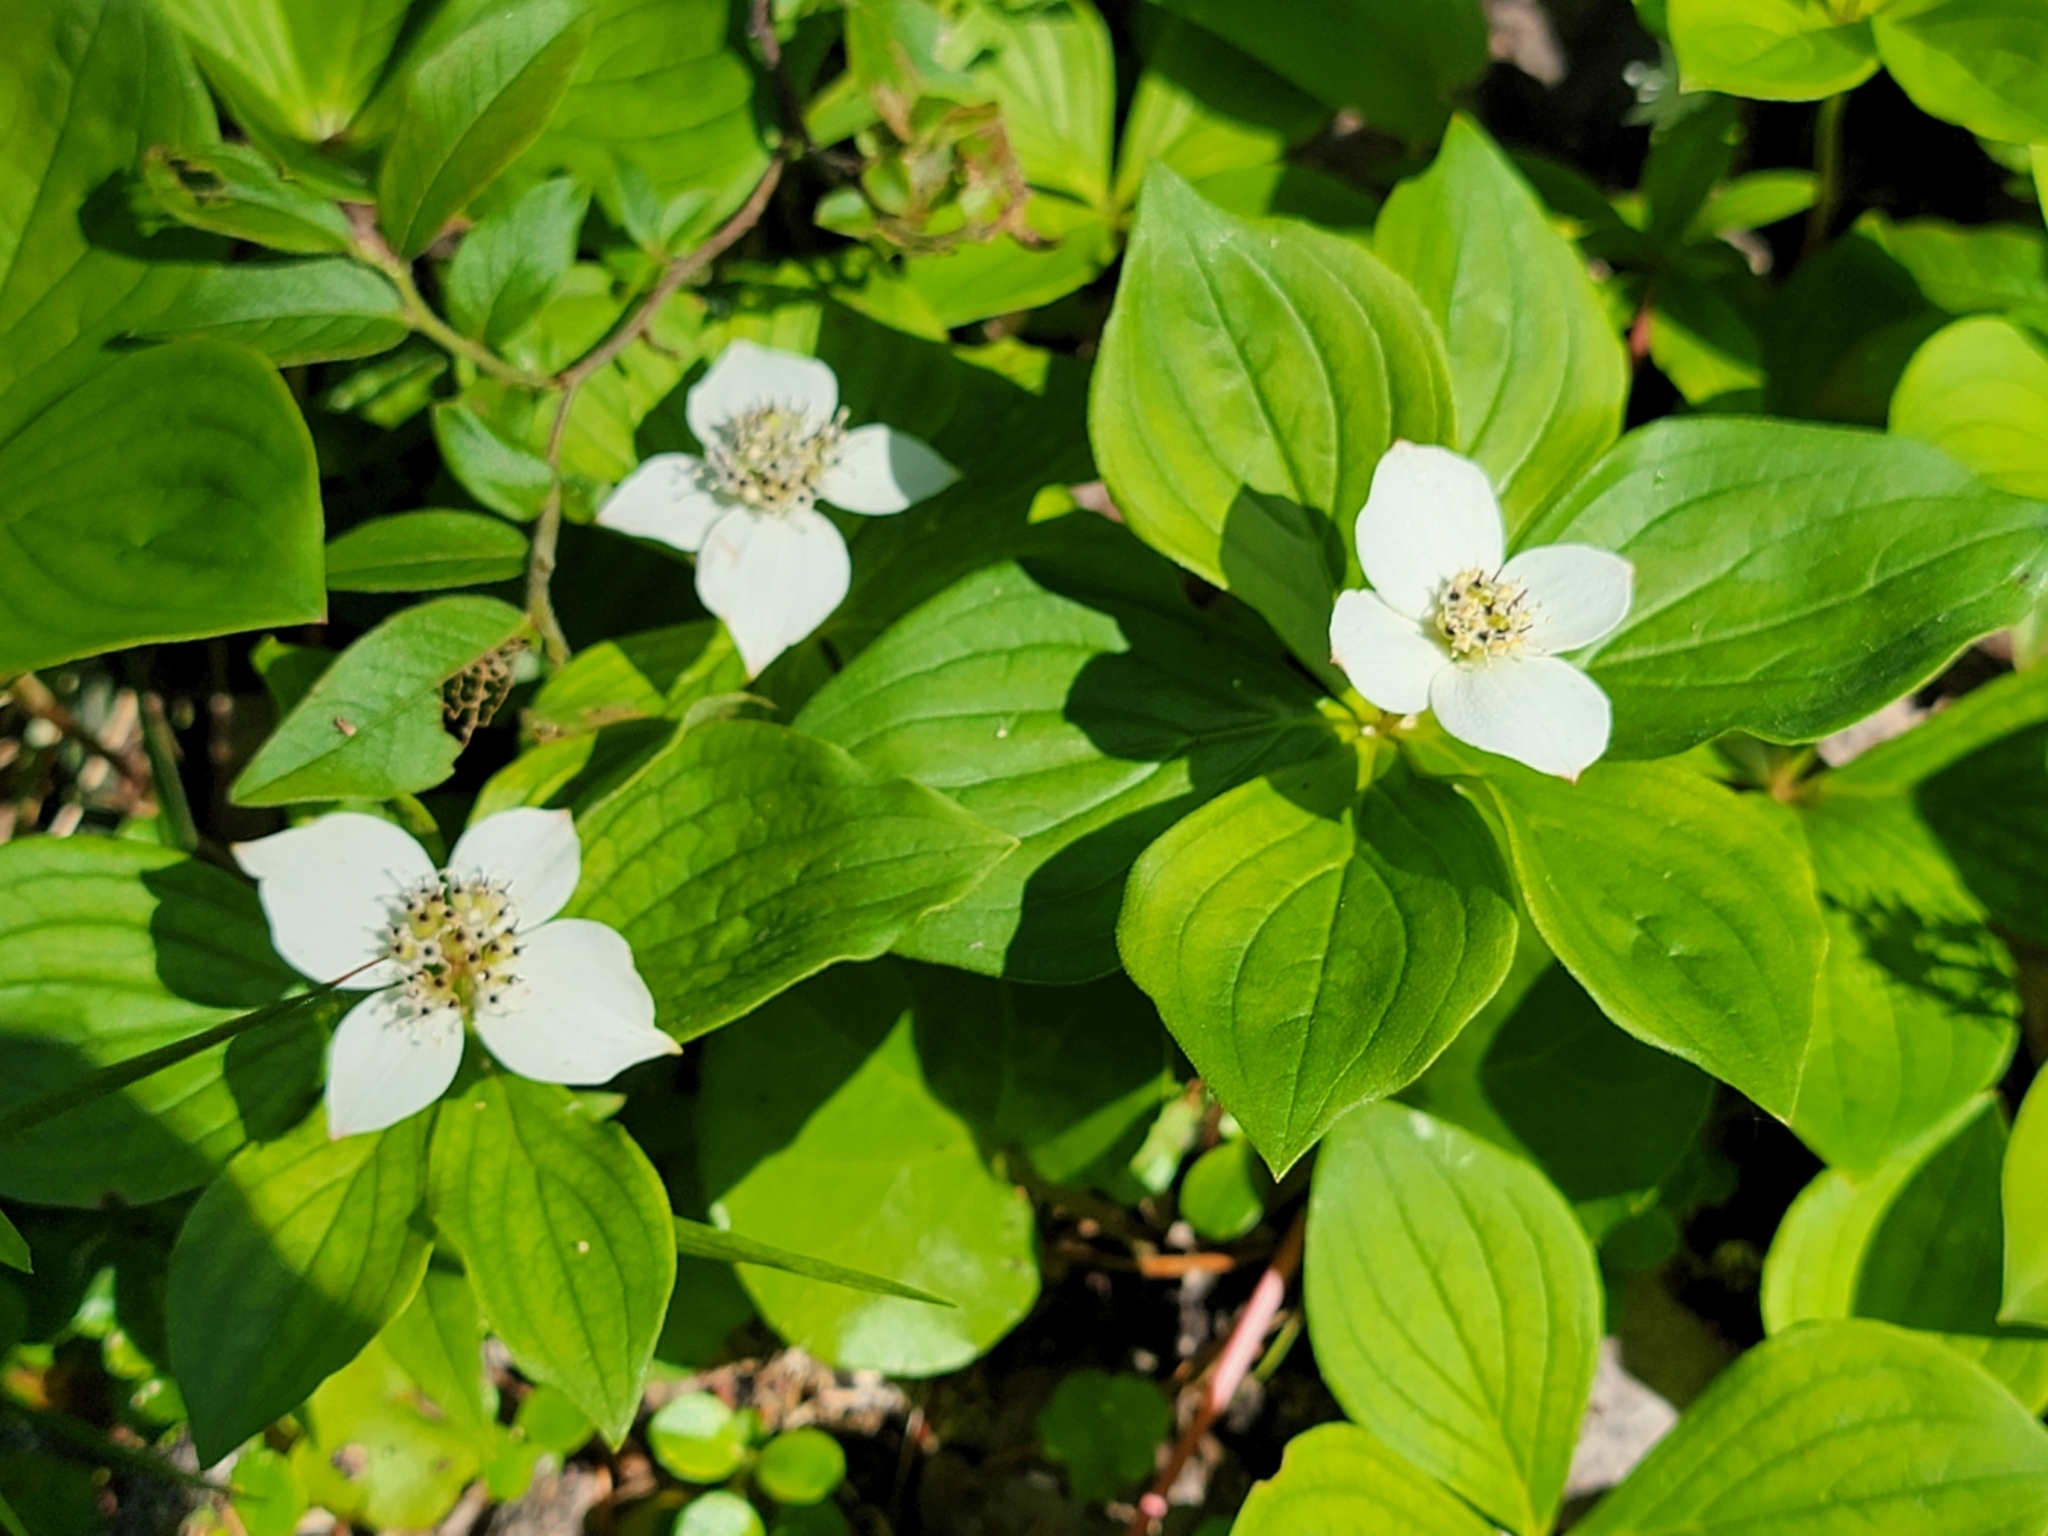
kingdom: Plantae
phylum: Tracheophyta
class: Magnoliopsida
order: Cornales
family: Cornaceae
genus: Cornus
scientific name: Cornus canadensis
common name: Creeping dogwood
